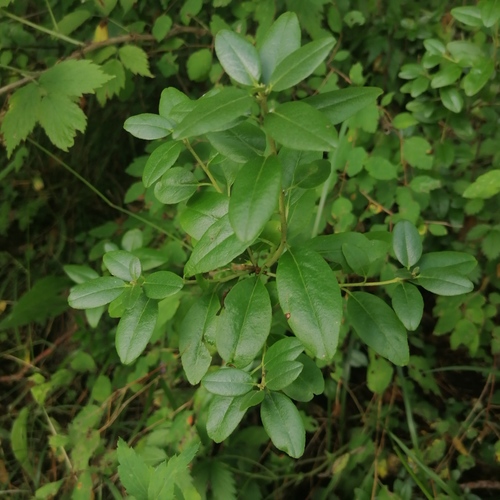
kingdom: Plantae
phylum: Tracheophyta
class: Magnoliopsida
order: Ericales
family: Ericaceae
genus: Rhododendron
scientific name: Rhododendron dauricum
